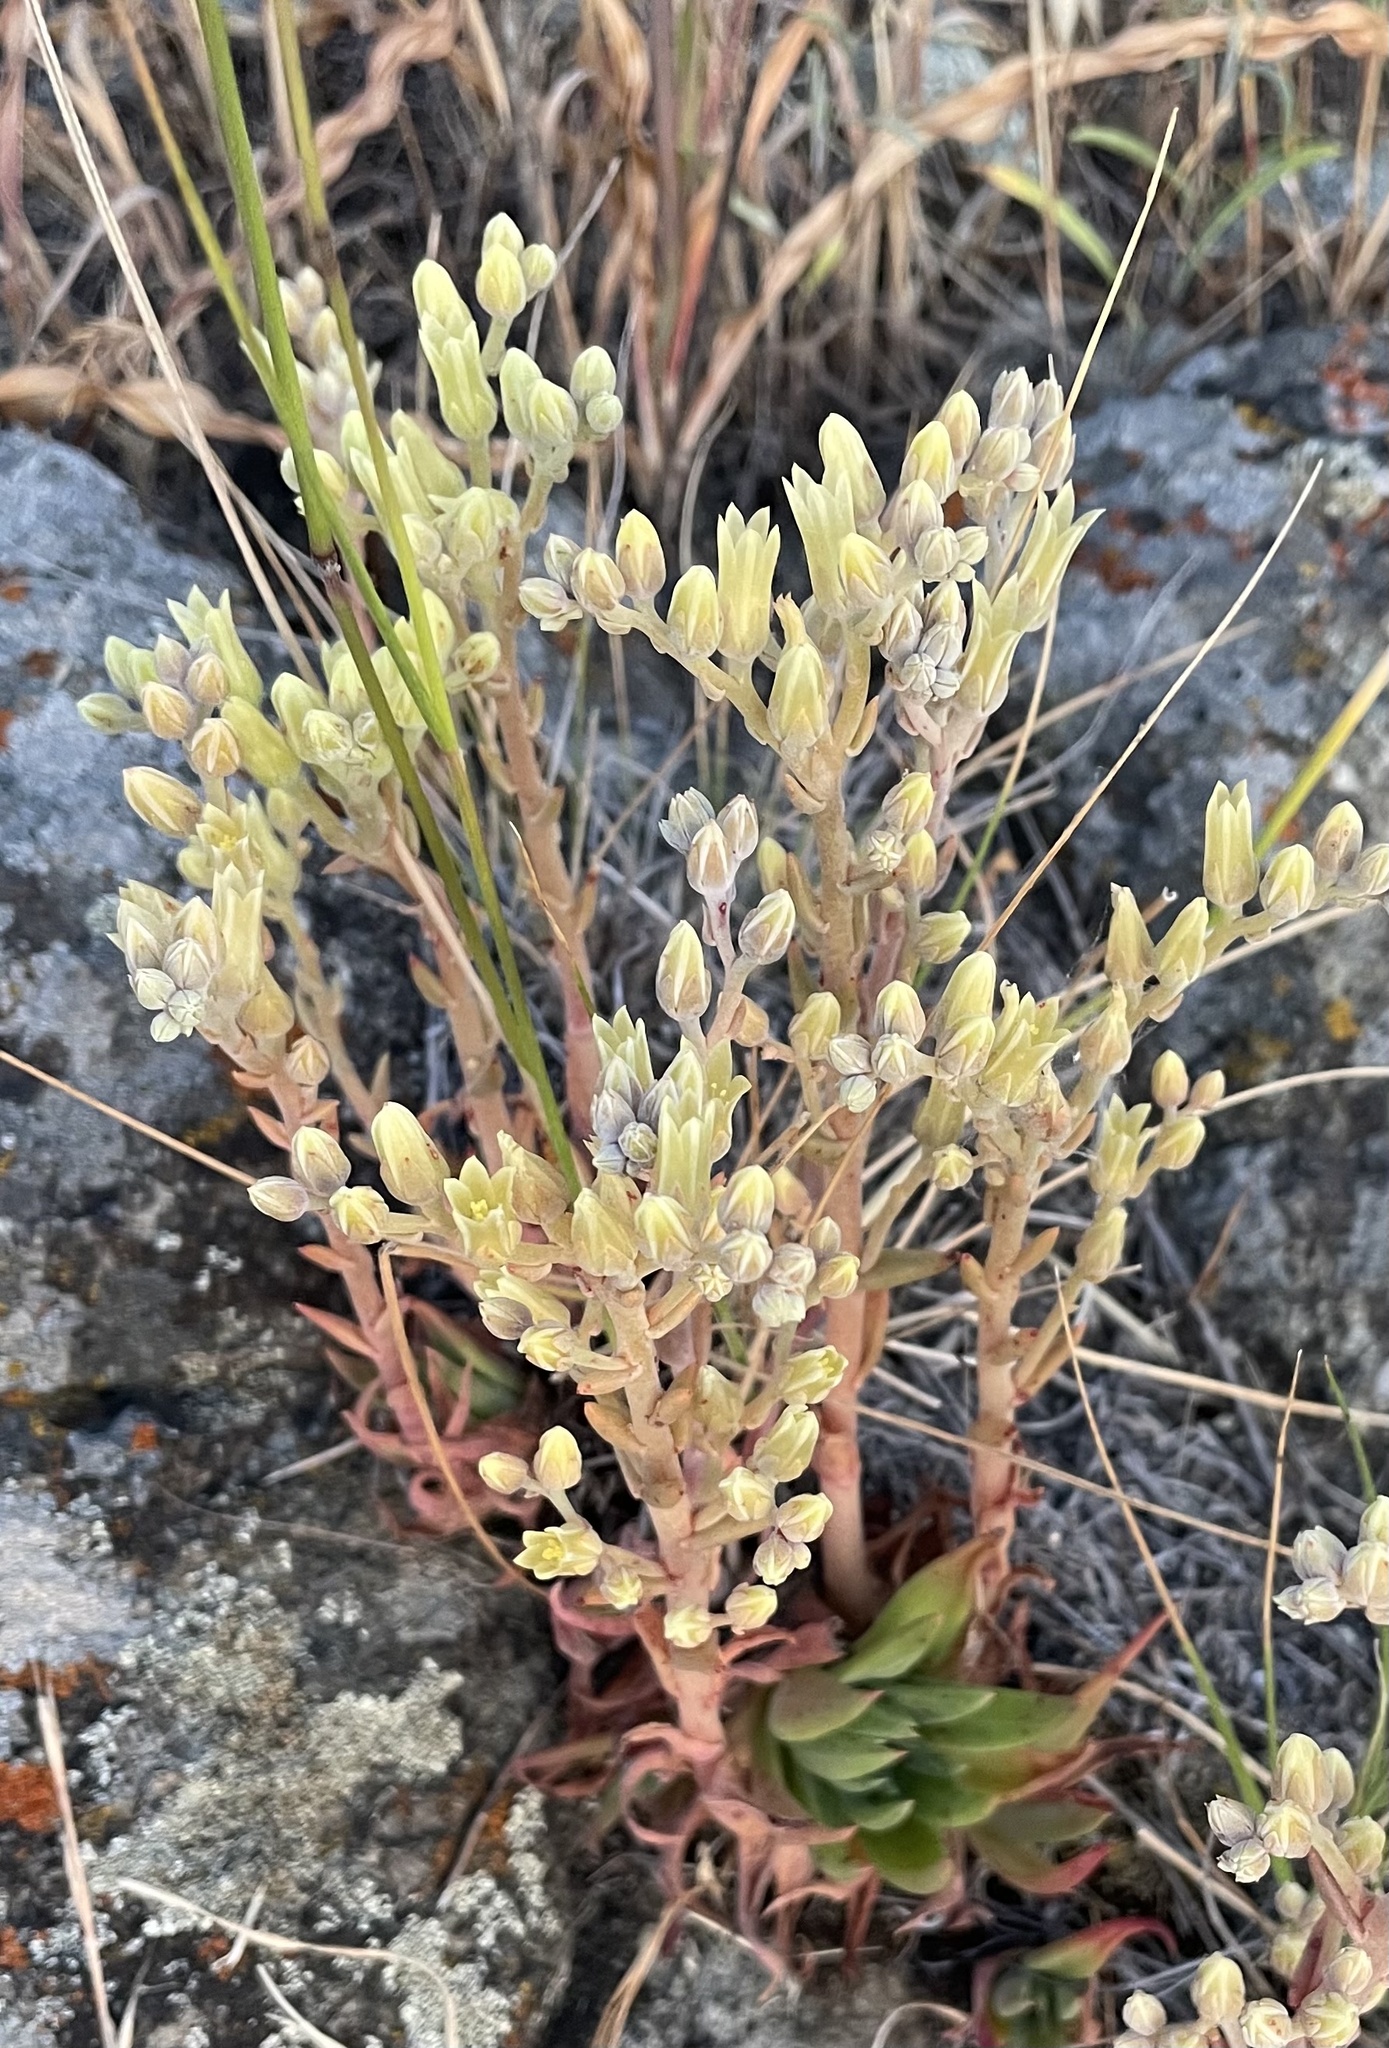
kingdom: Plantae
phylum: Tracheophyta
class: Magnoliopsida
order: Saxifragales
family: Crassulaceae
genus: Dudleya
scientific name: Dudleya abramsii
